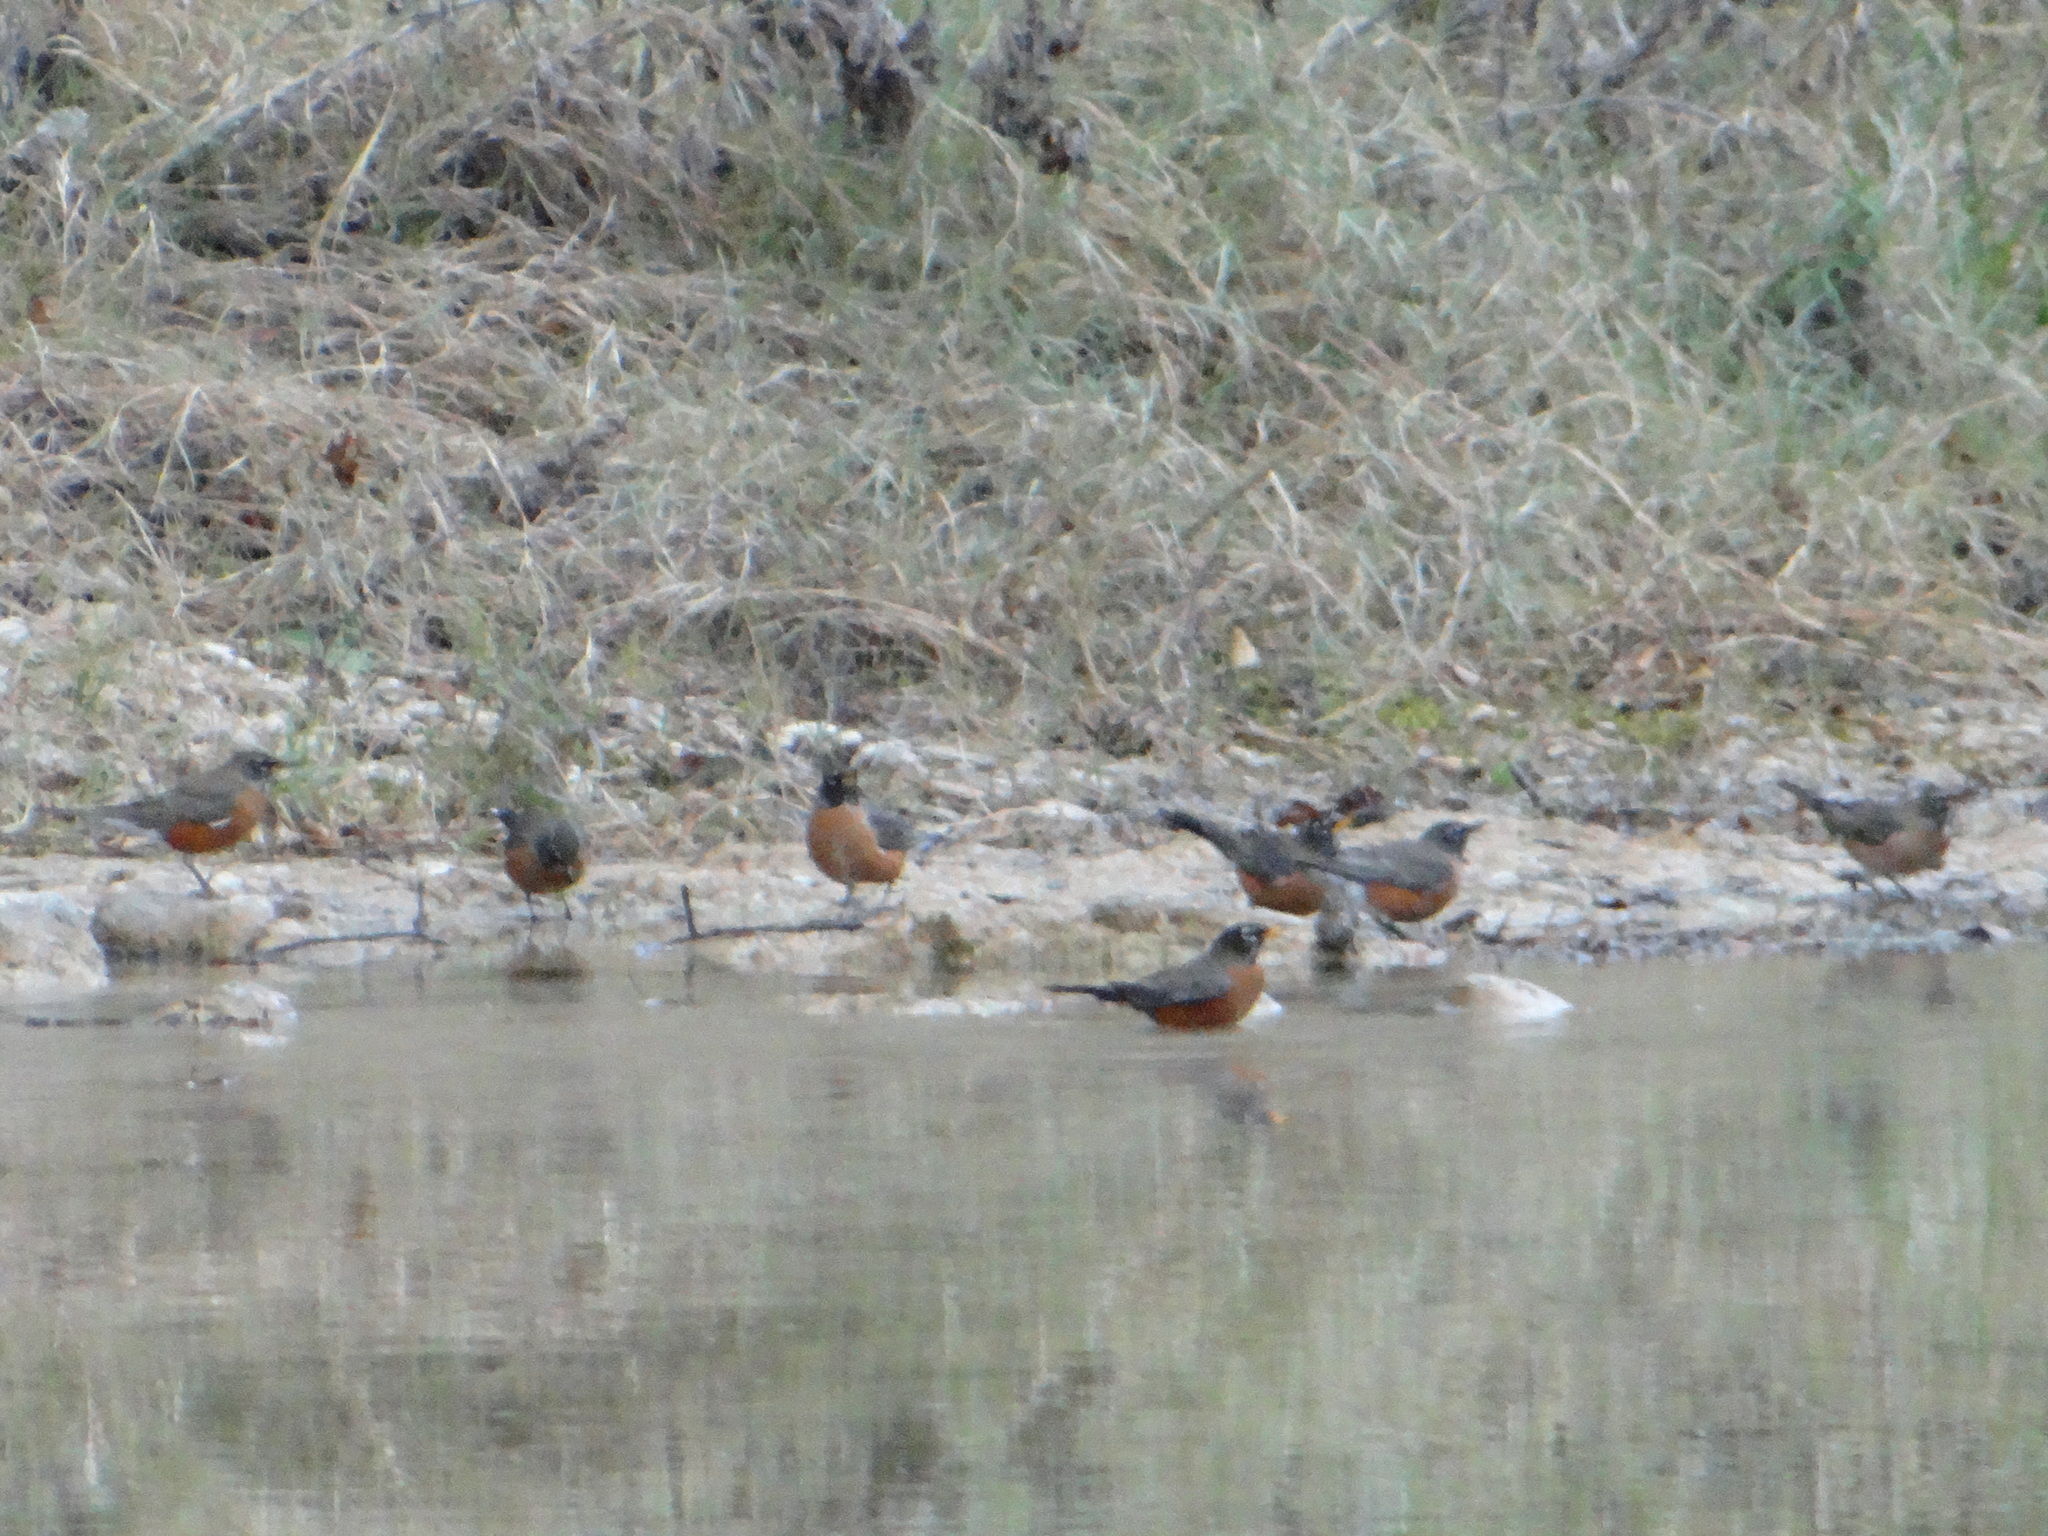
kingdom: Animalia
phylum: Chordata
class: Aves
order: Passeriformes
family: Turdidae
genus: Turdus
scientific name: Turdus migratorius
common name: American robin
